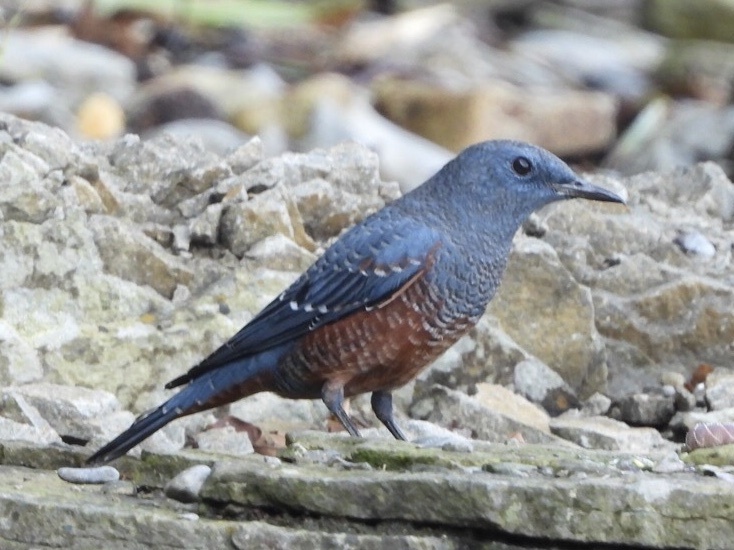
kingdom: Animalia
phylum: Chordata
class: Aves
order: Passeriformes
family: Muscicapidae
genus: Monticola
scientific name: Monticola solitarius
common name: Blue rock thrush
